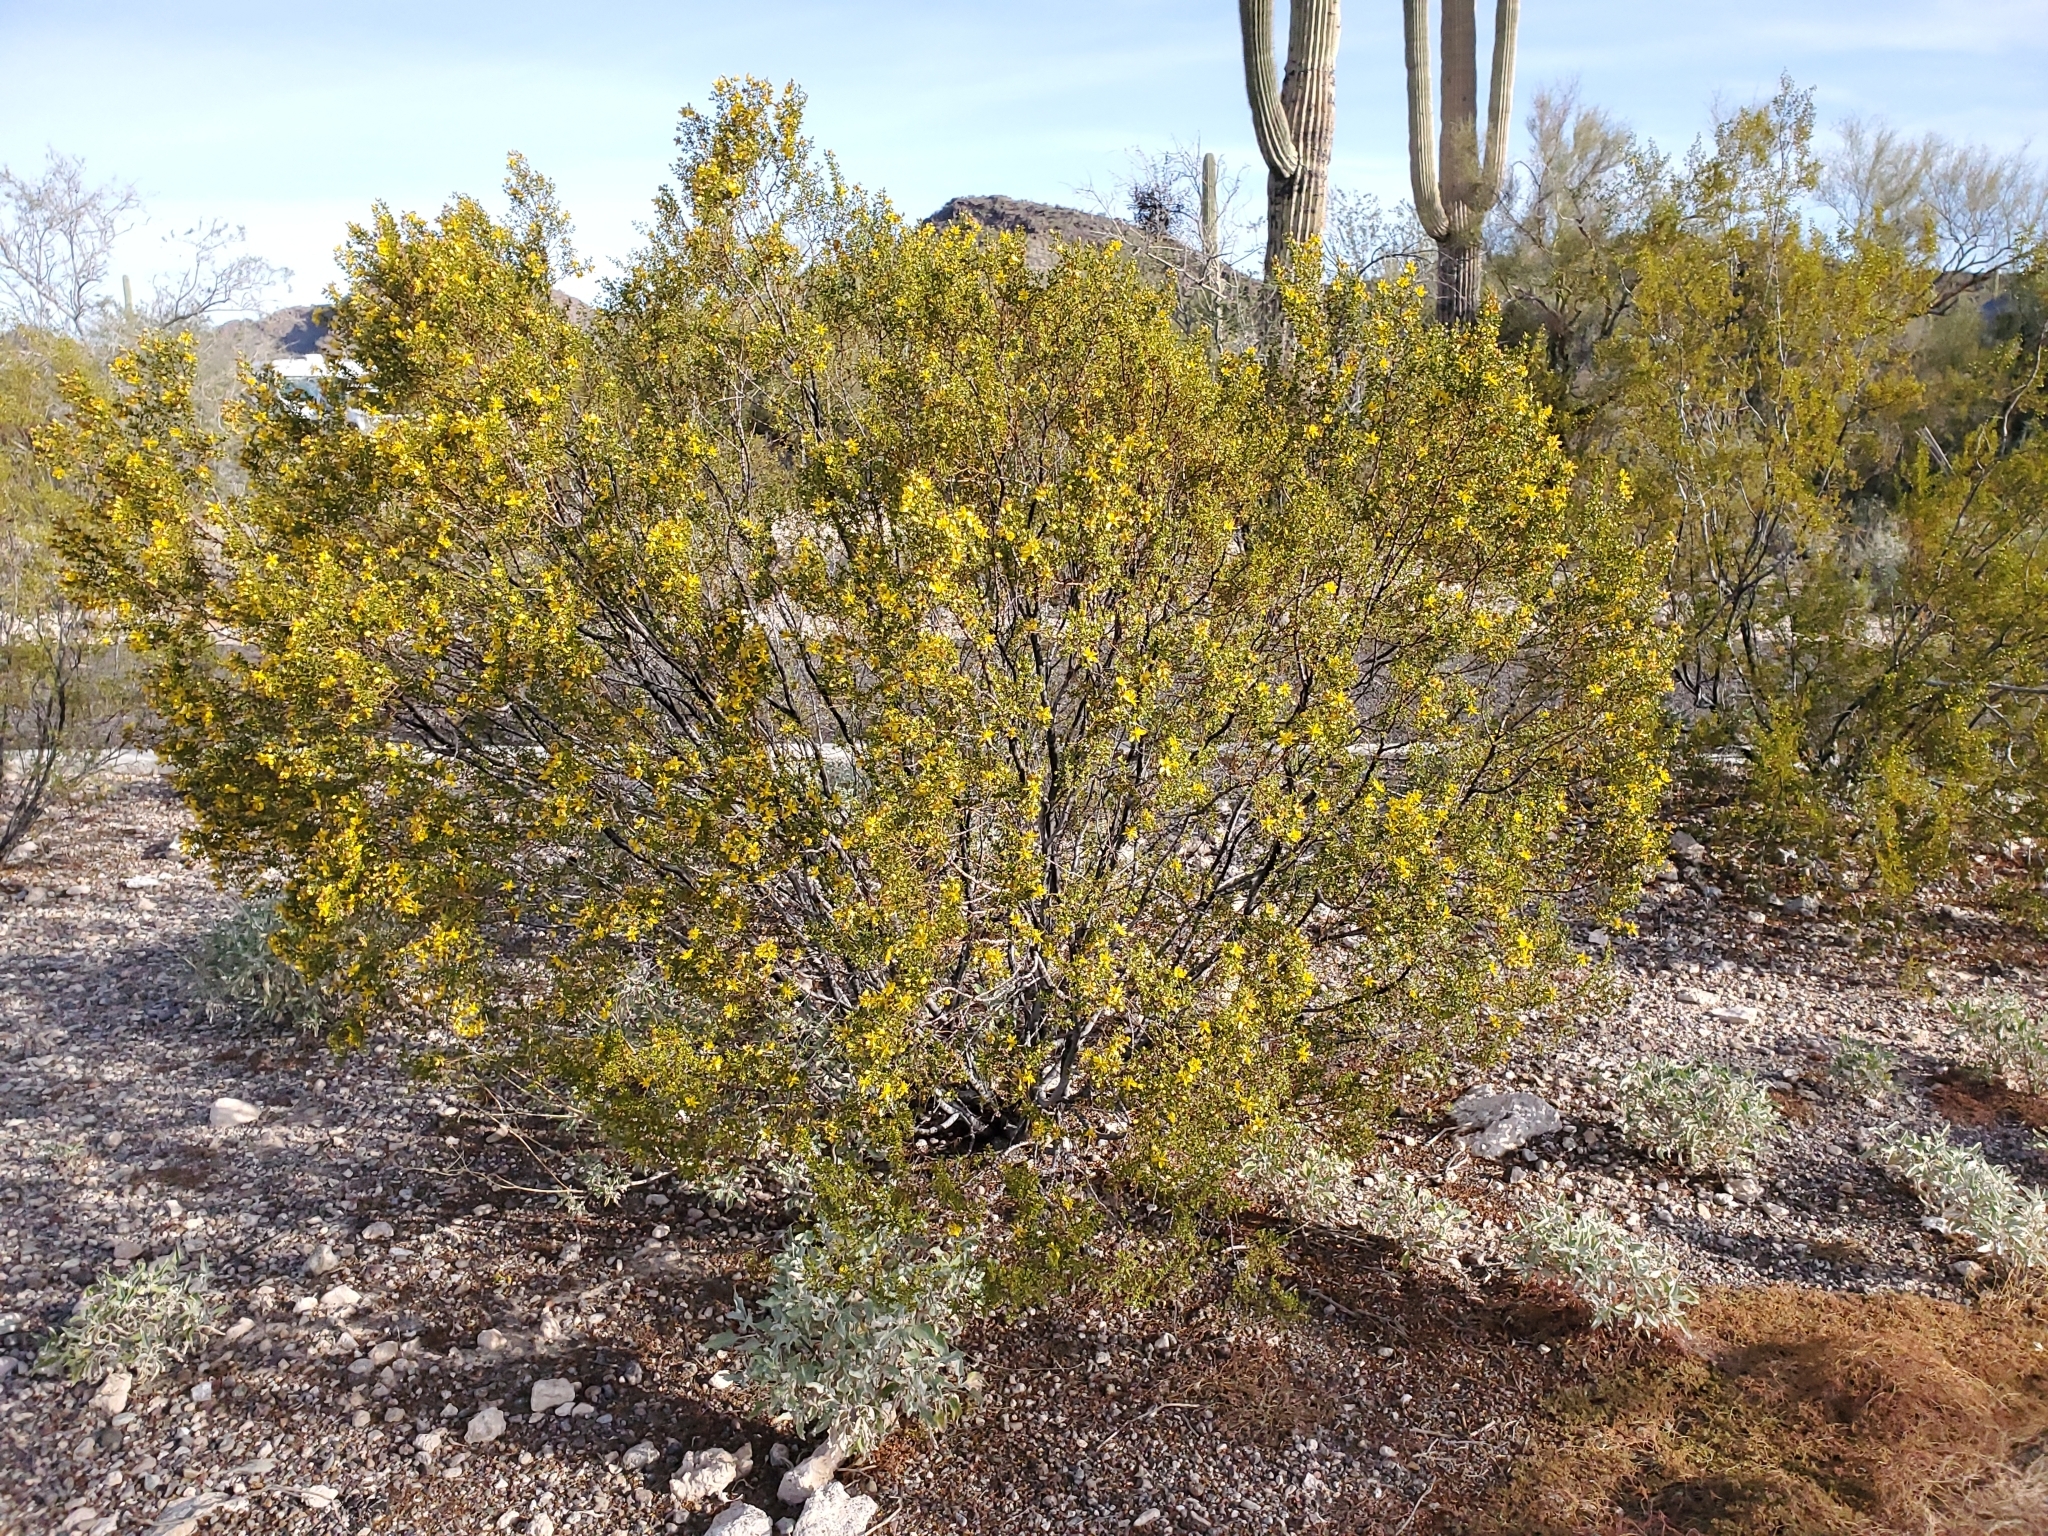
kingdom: Plantae
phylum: Tracheophyta
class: Magnoliopsida
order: Zygophyllales
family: Zygophyllaceae
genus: Larrea
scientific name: Larrea tridentata
